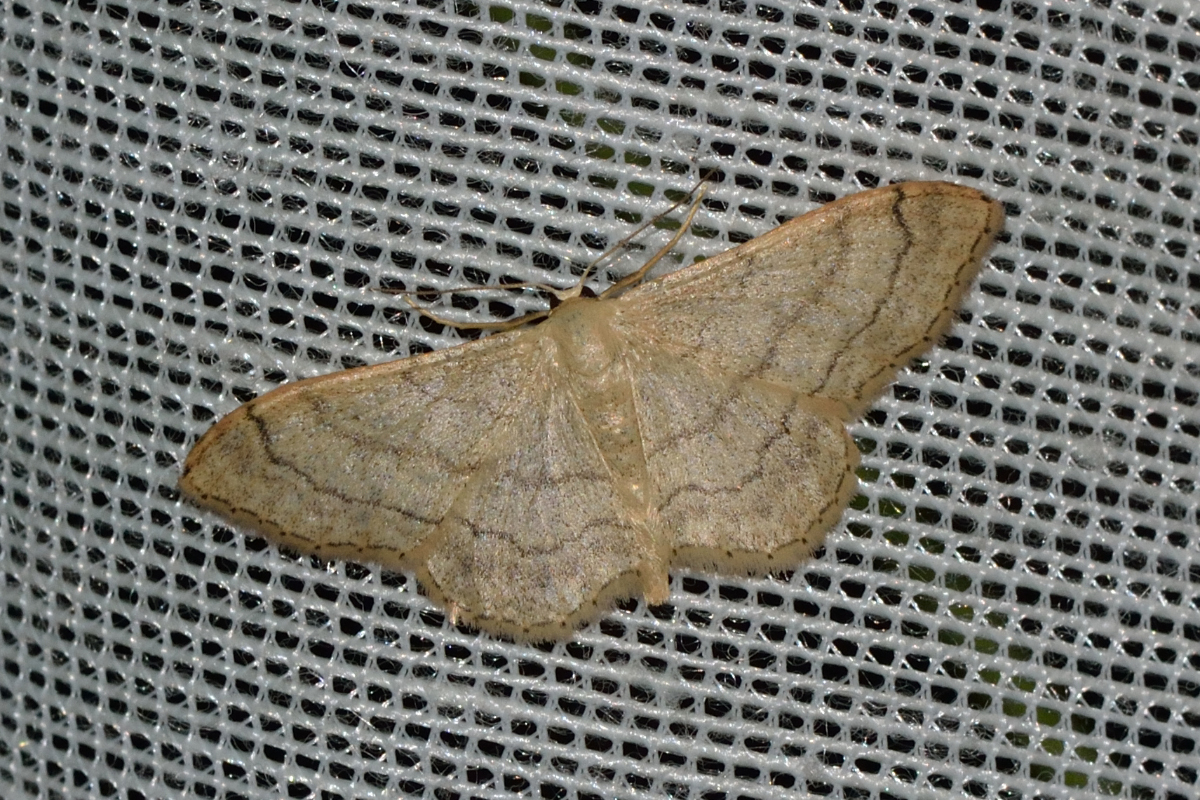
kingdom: Animalia
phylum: Arthropoda
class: Insecta
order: Lepidoptera
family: Geometridae
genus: Idaea
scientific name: Idaea aversata
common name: Riband wave
